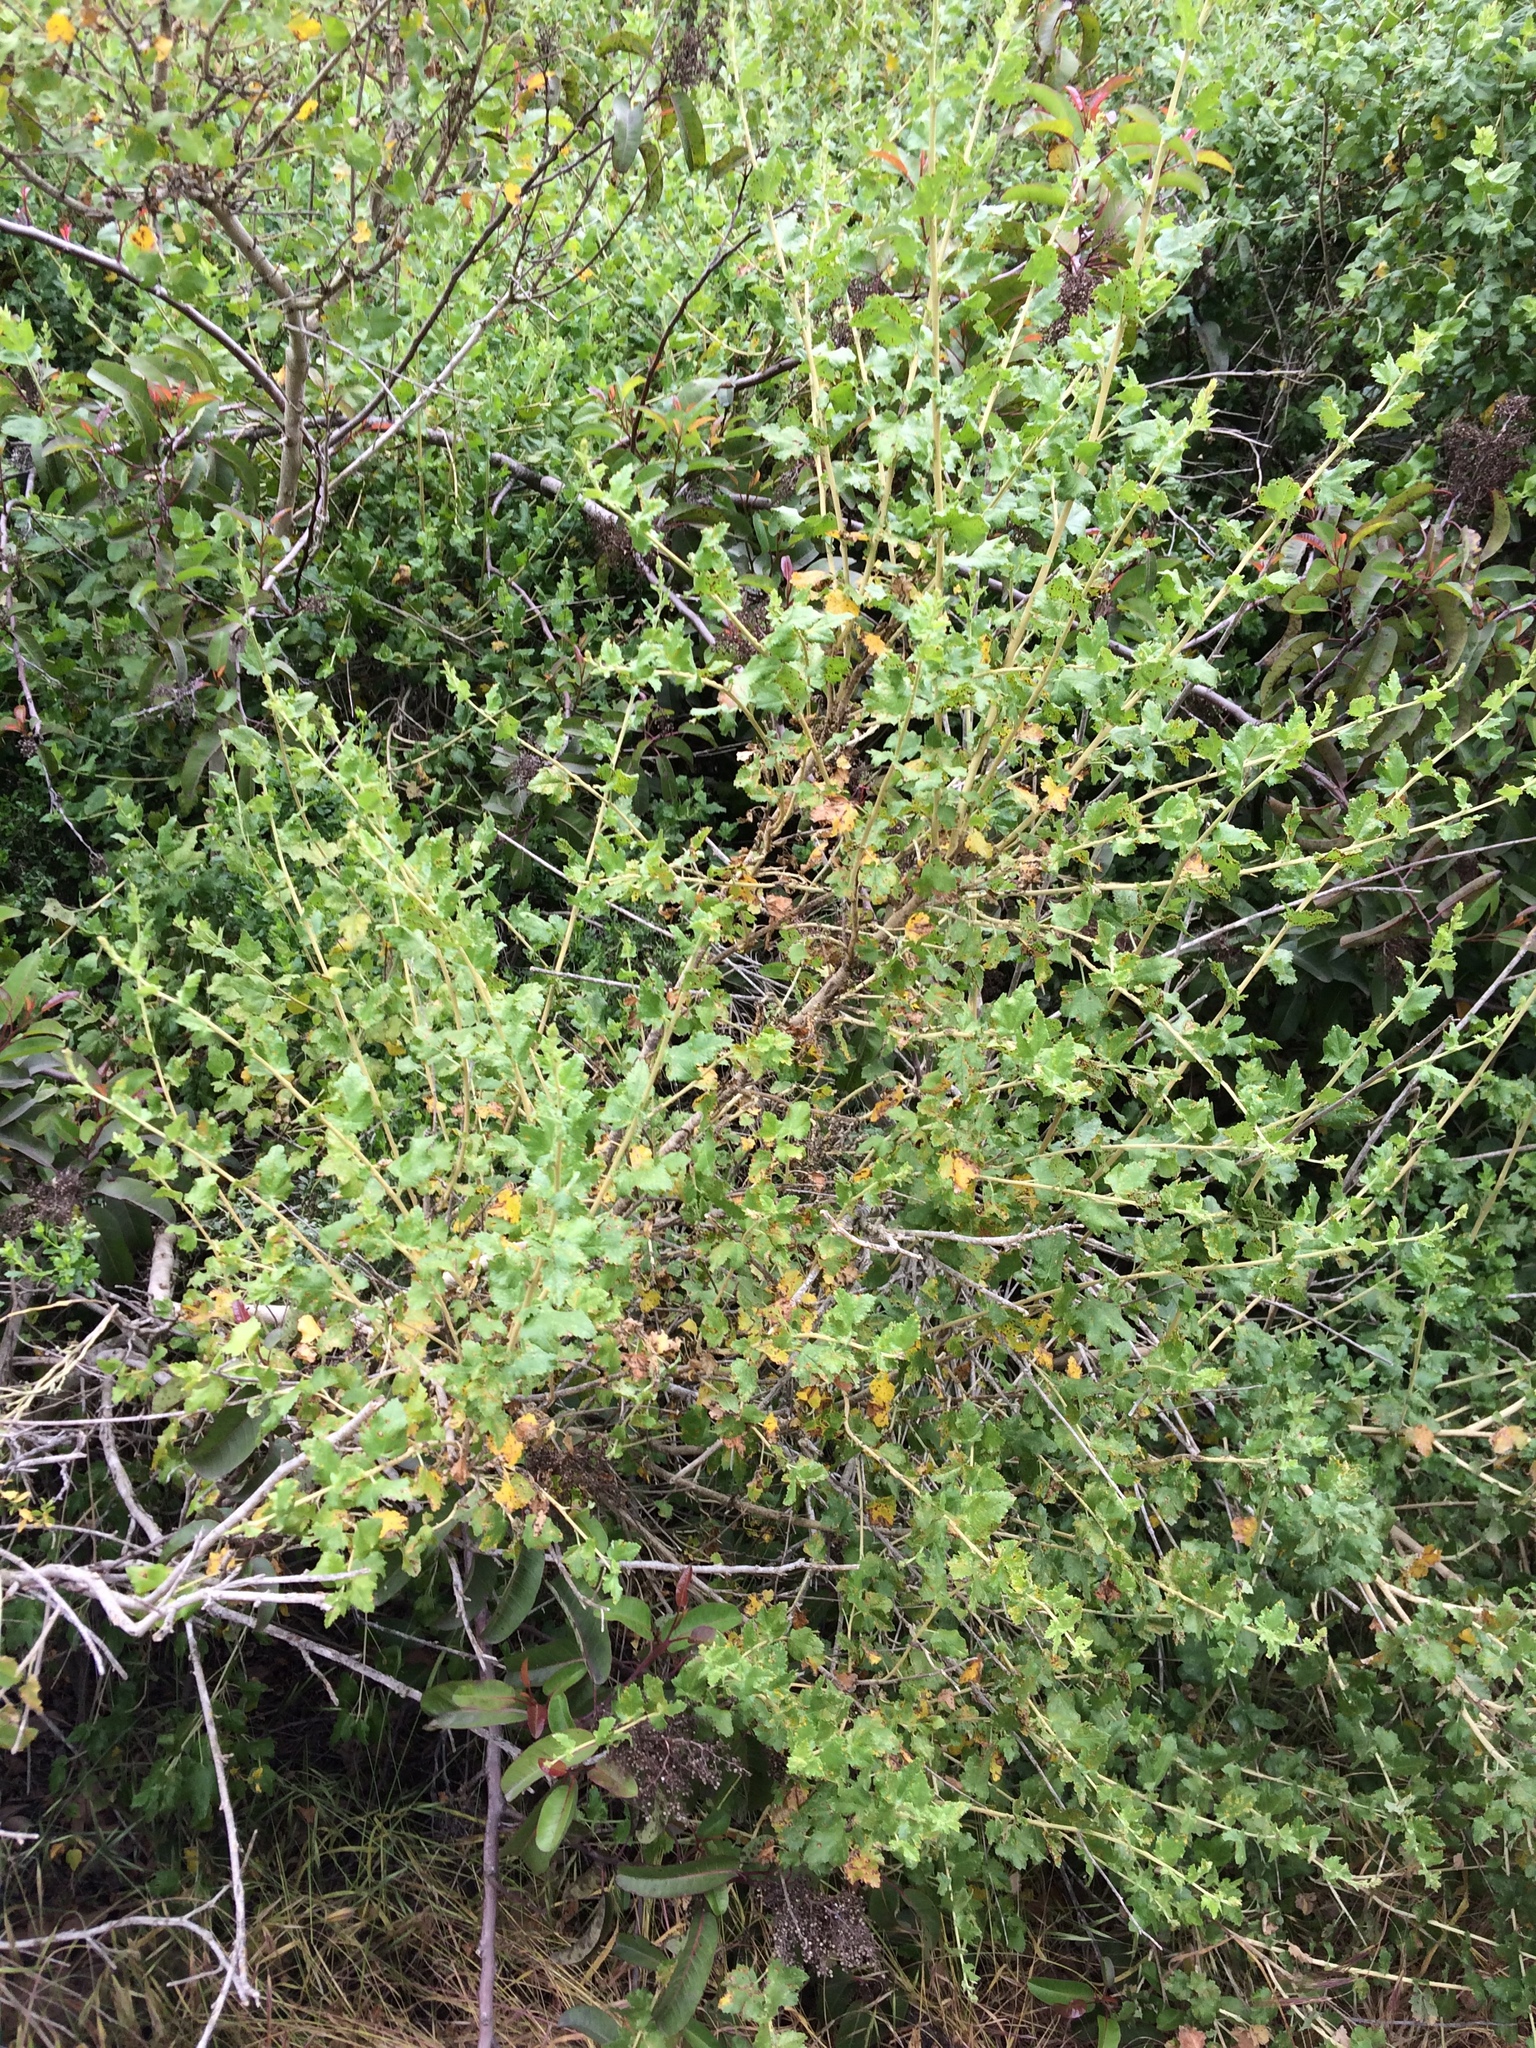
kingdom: Plantae
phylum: Tracheophyta
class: Magnoliopsida
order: Malvales
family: Malvaceae
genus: Malacothamnus
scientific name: Malacothamnus fasciculatus
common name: Sant cruz island bush-mallow
